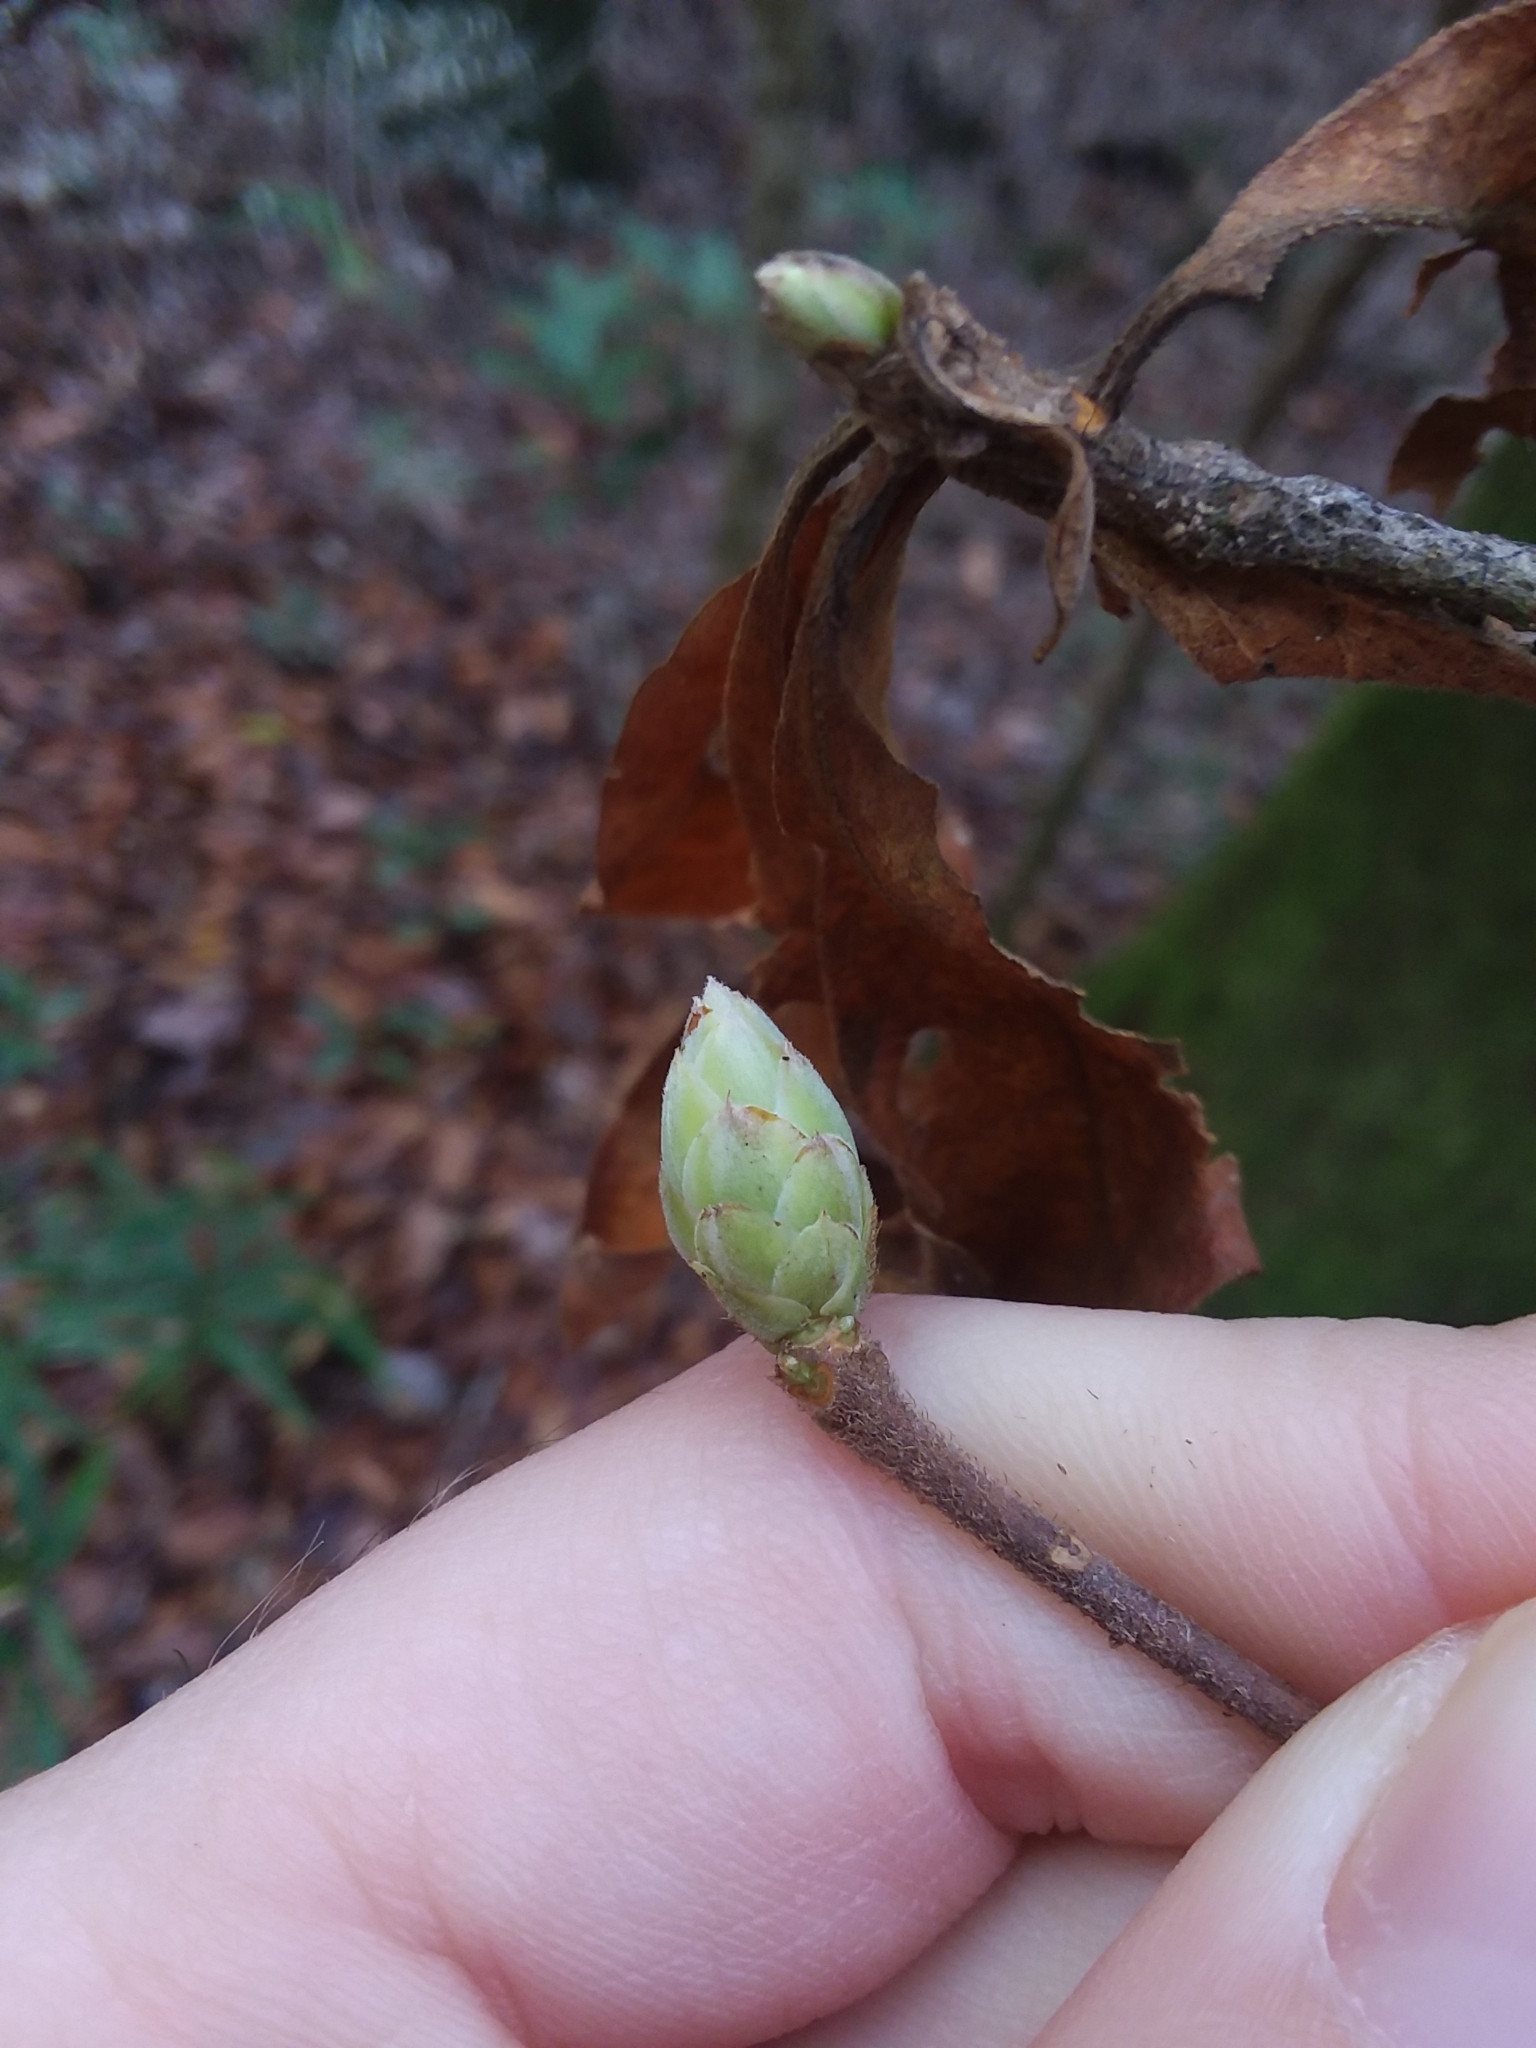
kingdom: Plantae
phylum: Tracheophyta
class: Magnoliopsida
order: Ericales
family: Ericaceae
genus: Rhododendron
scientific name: Rhododendron canescens
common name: Mountain azalea
